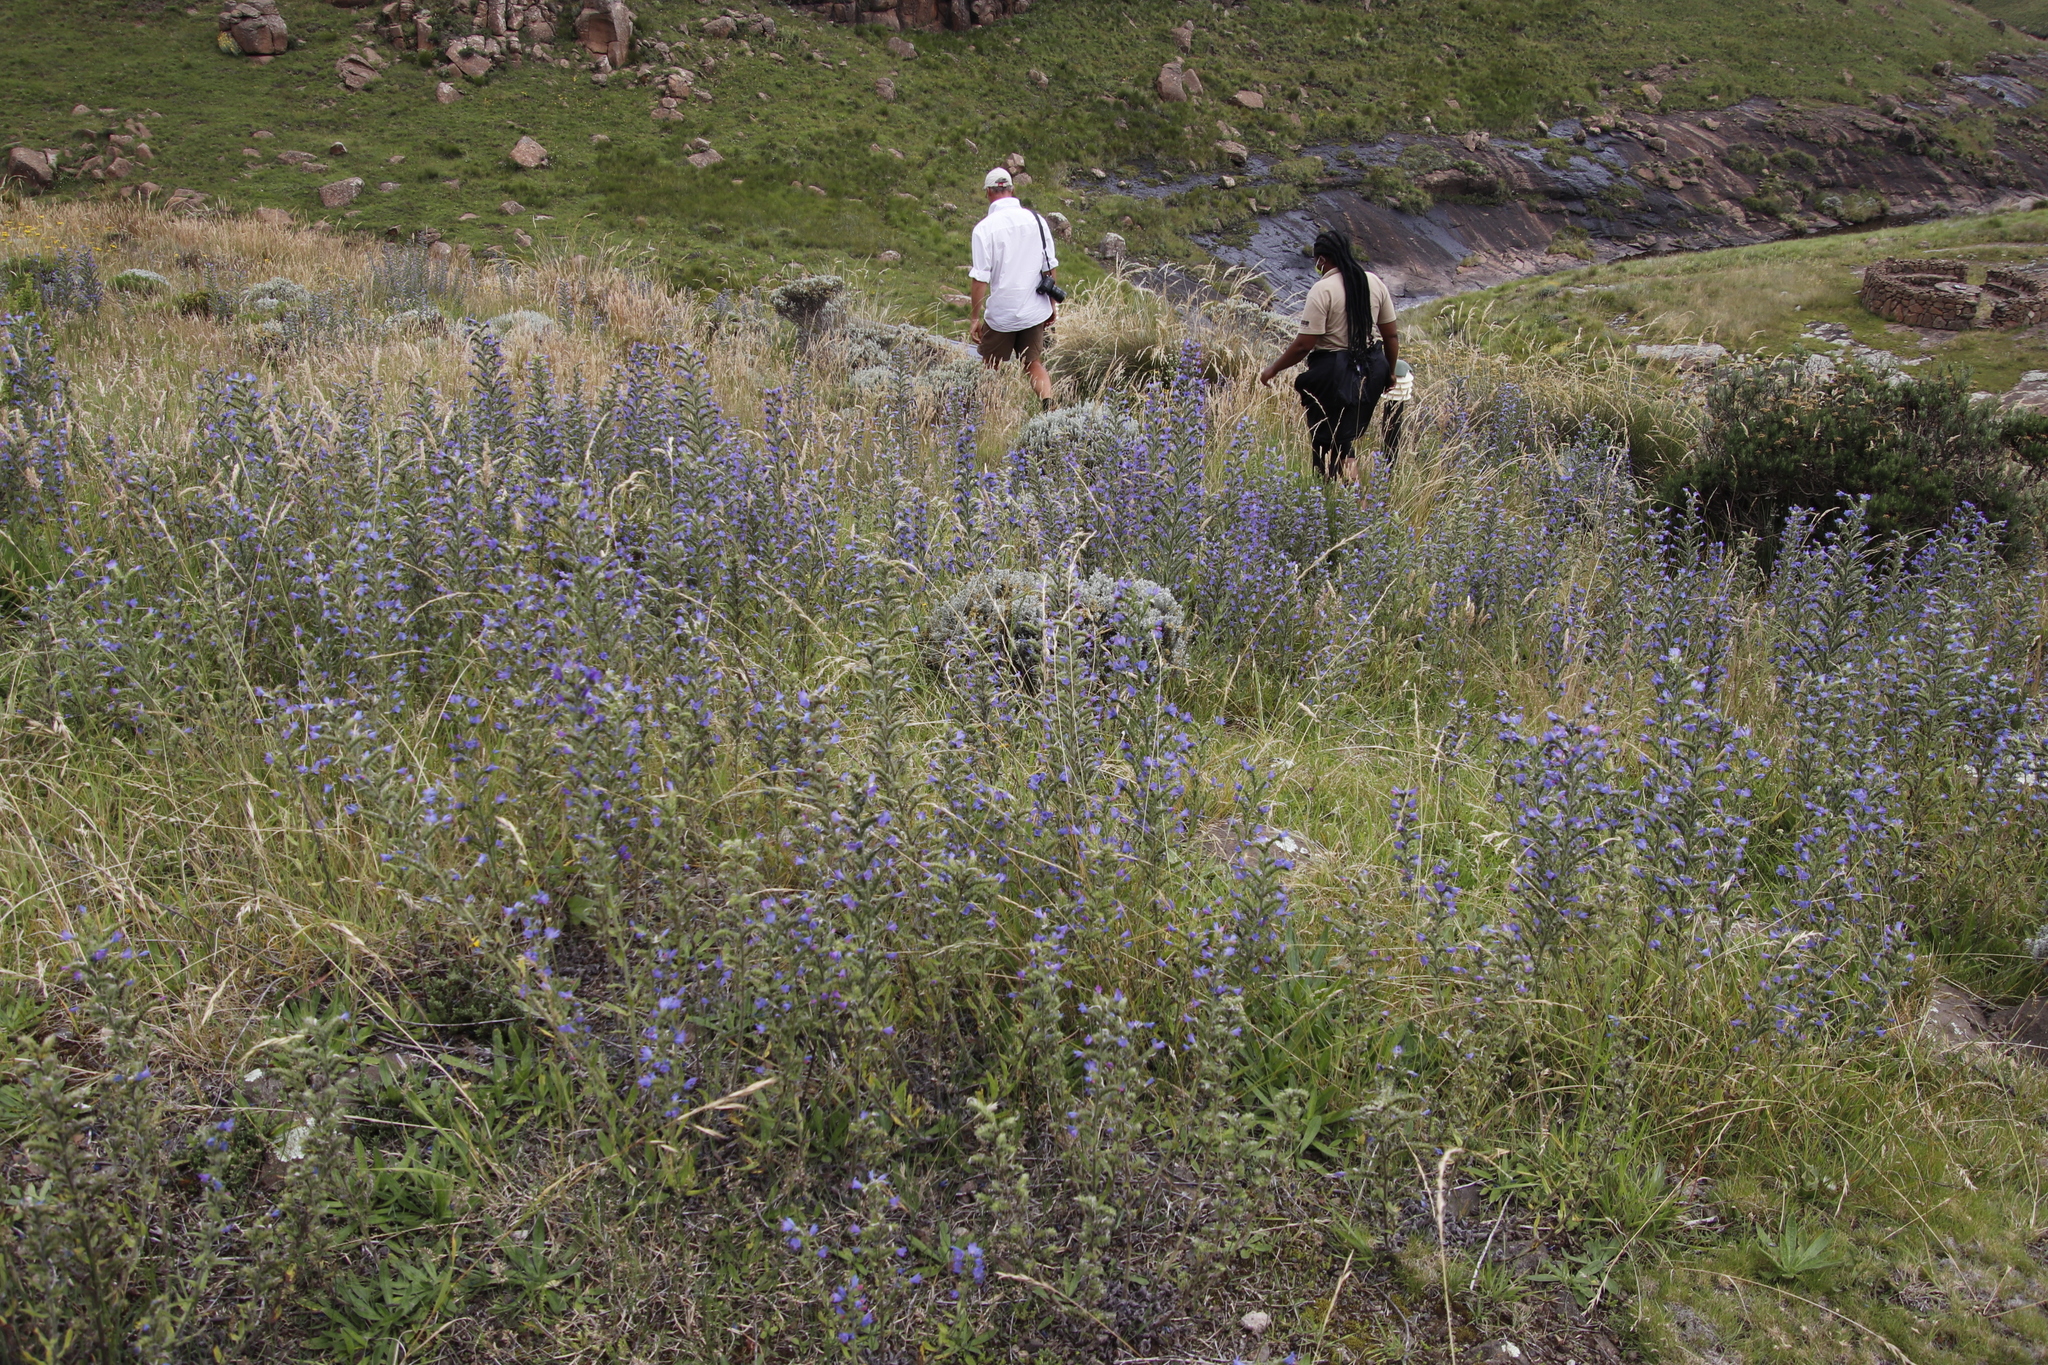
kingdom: Plantae
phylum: Tracheophyta
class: Magnoliopsida
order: Boraginales
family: Boraginaceae
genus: Echium
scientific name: Echium vulgare
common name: Common viper's bugloss
